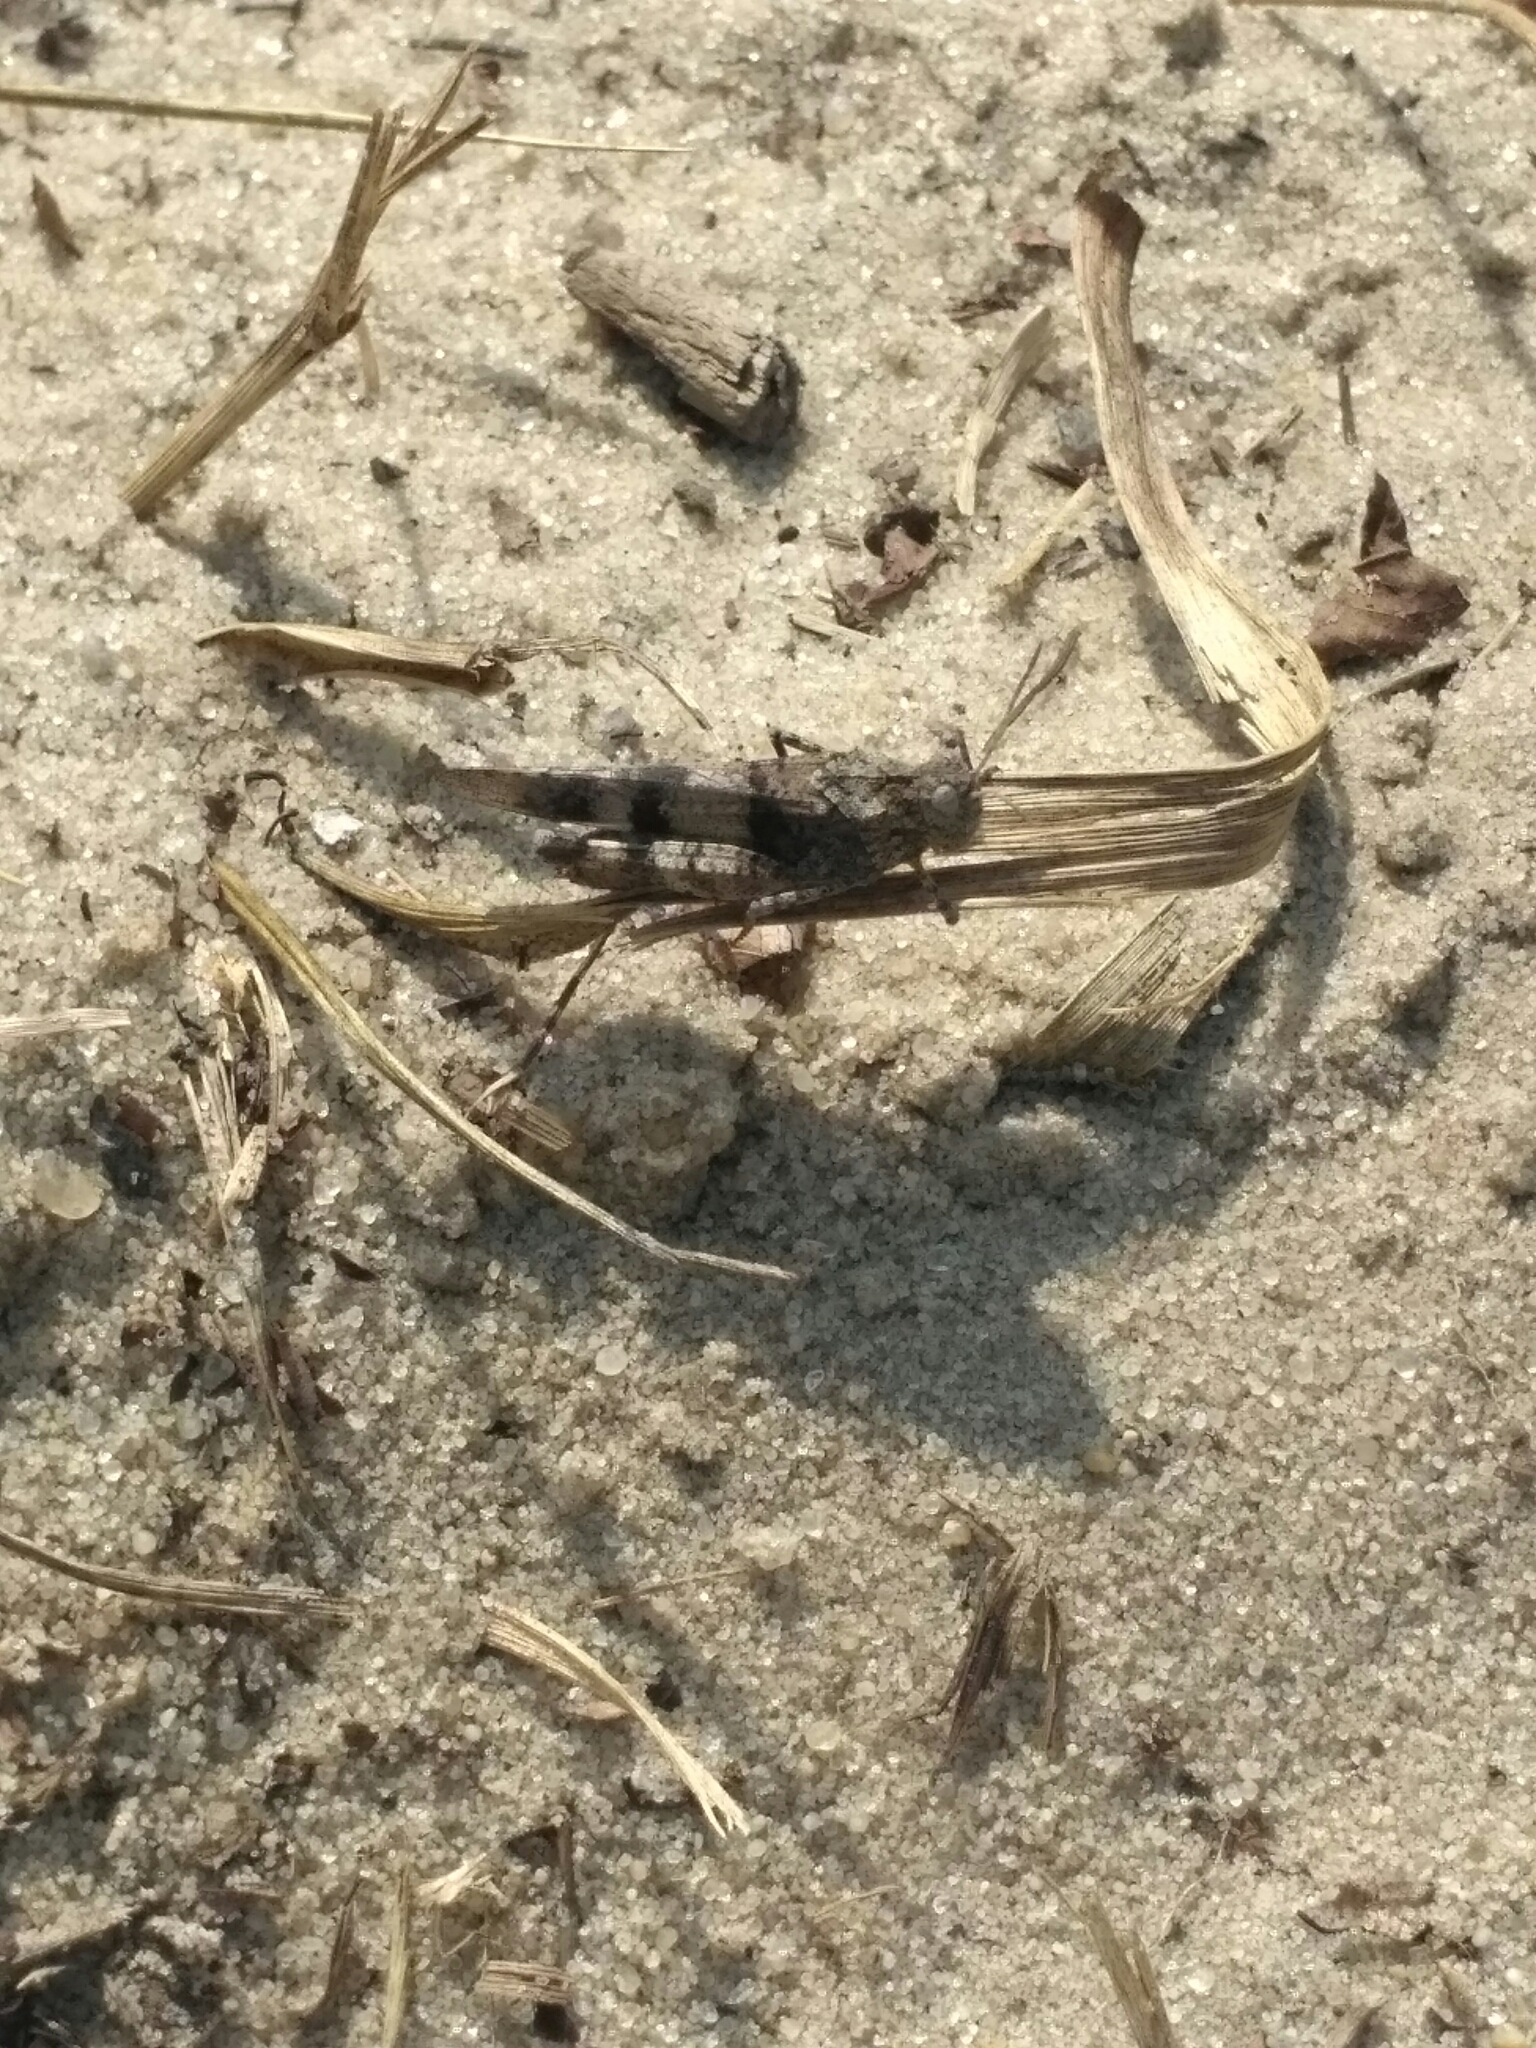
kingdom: Animalia
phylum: Arthropoda
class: Insecta
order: Orthoptera
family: Acrididae
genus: Oedipoda
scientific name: Oedipoda caerulescens
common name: Blue-winged grasshopper
